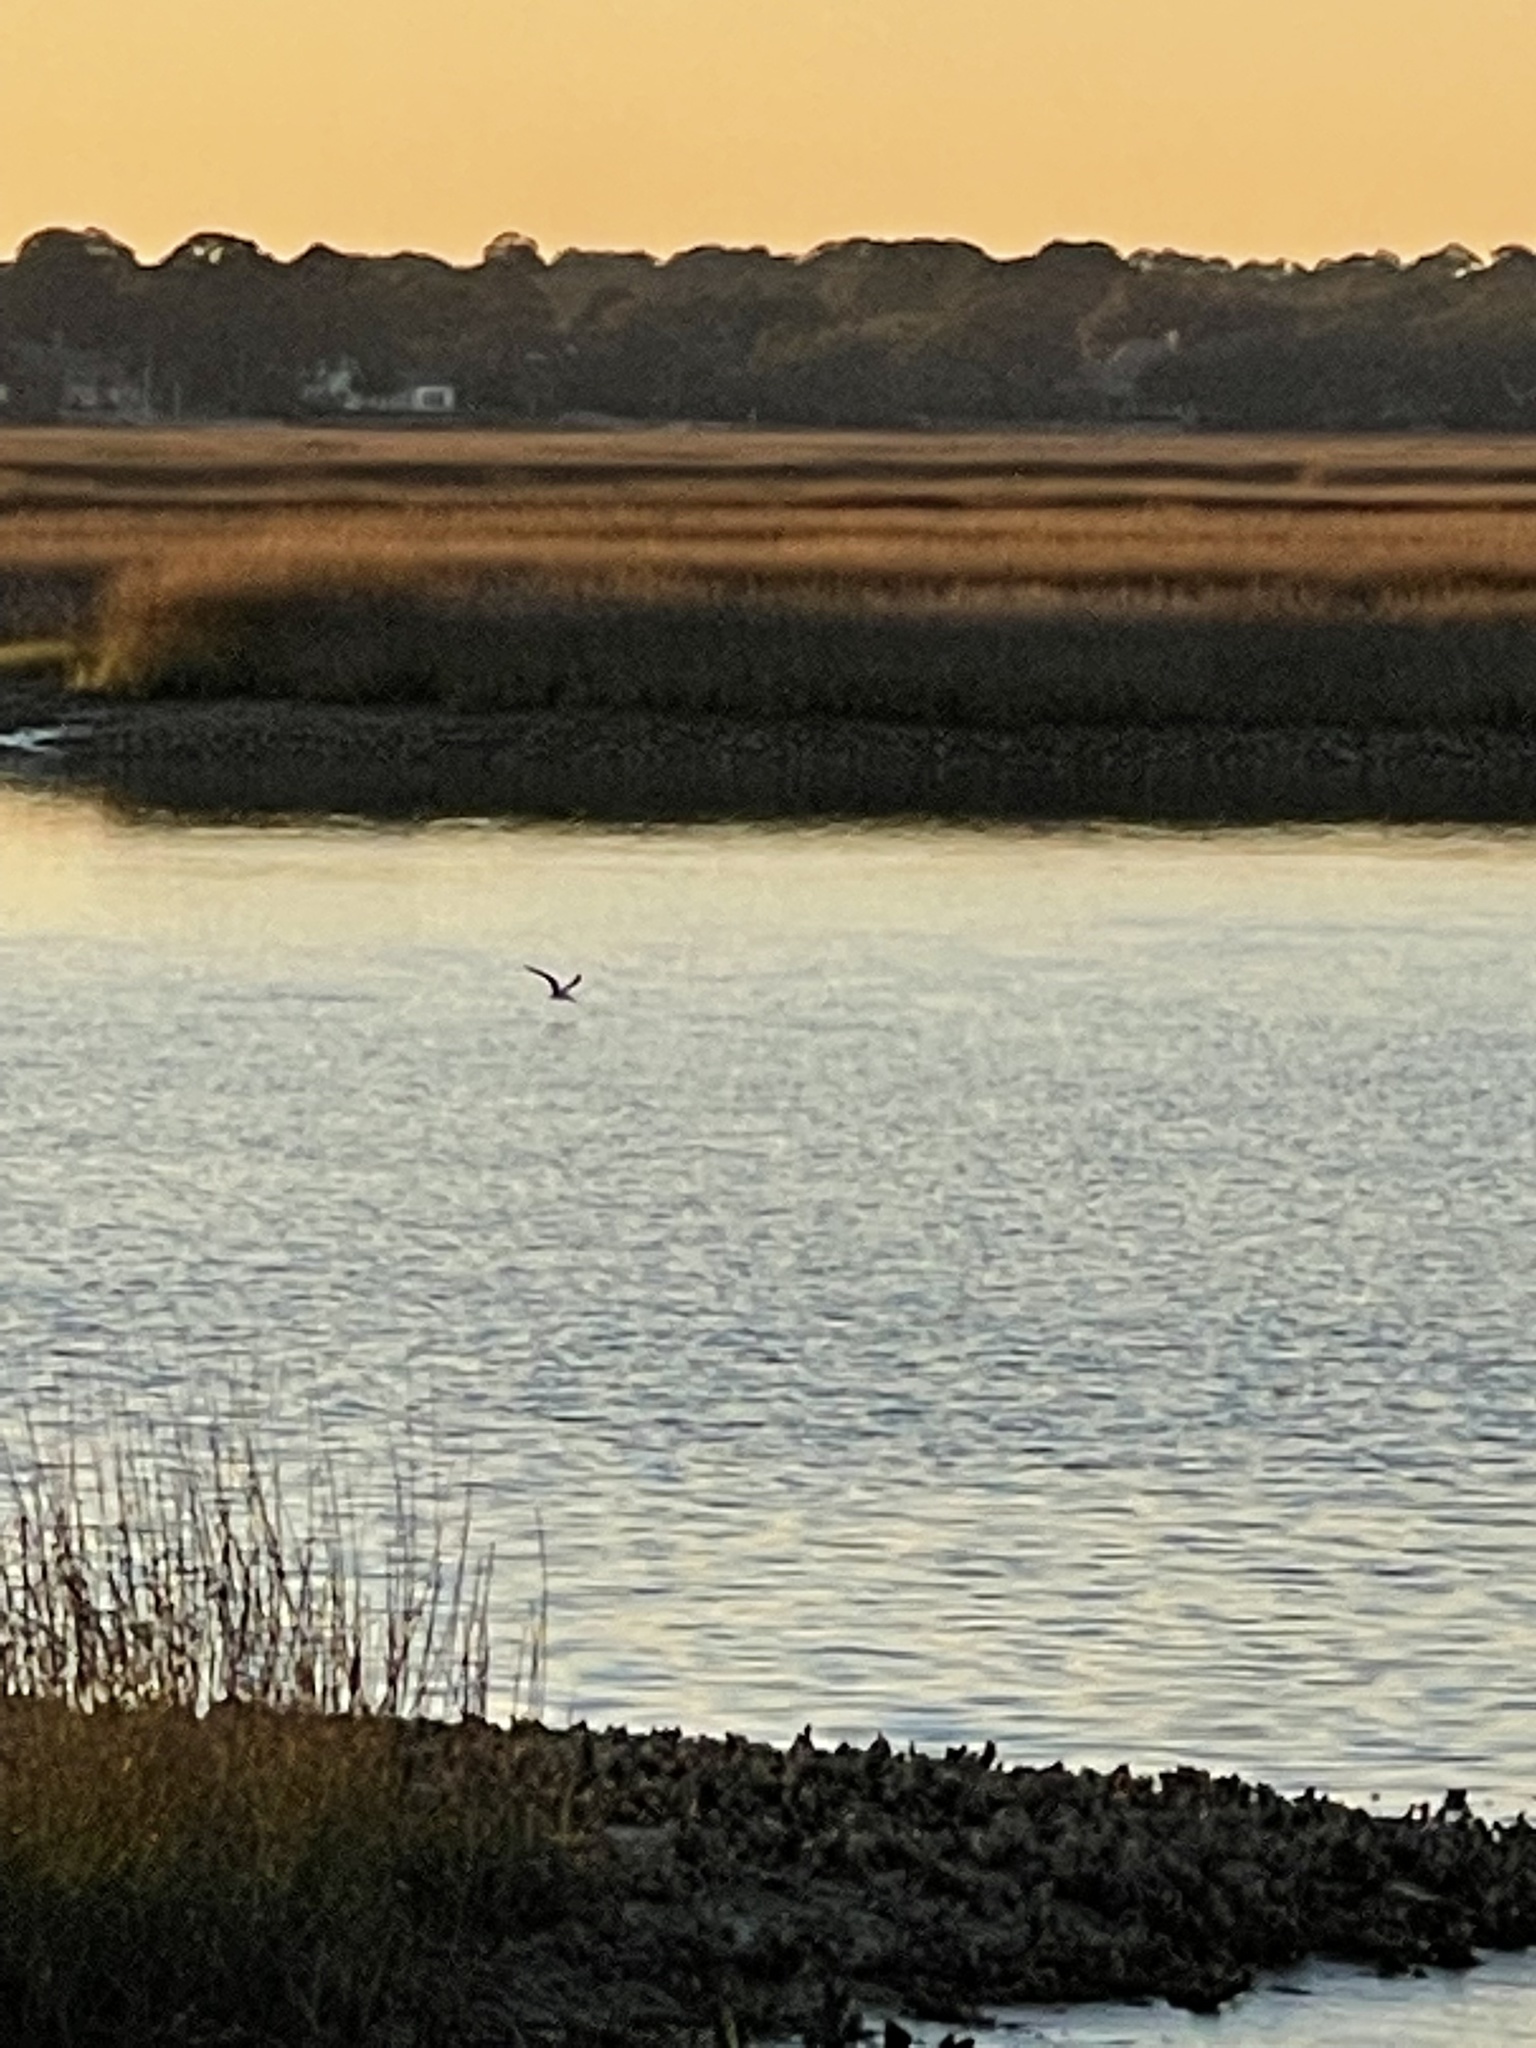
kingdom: Animalia
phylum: Chordata
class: Aves
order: Charadriiformes
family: Laridae
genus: Rynchops
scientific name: Rynchops niger
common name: Black skimmer
